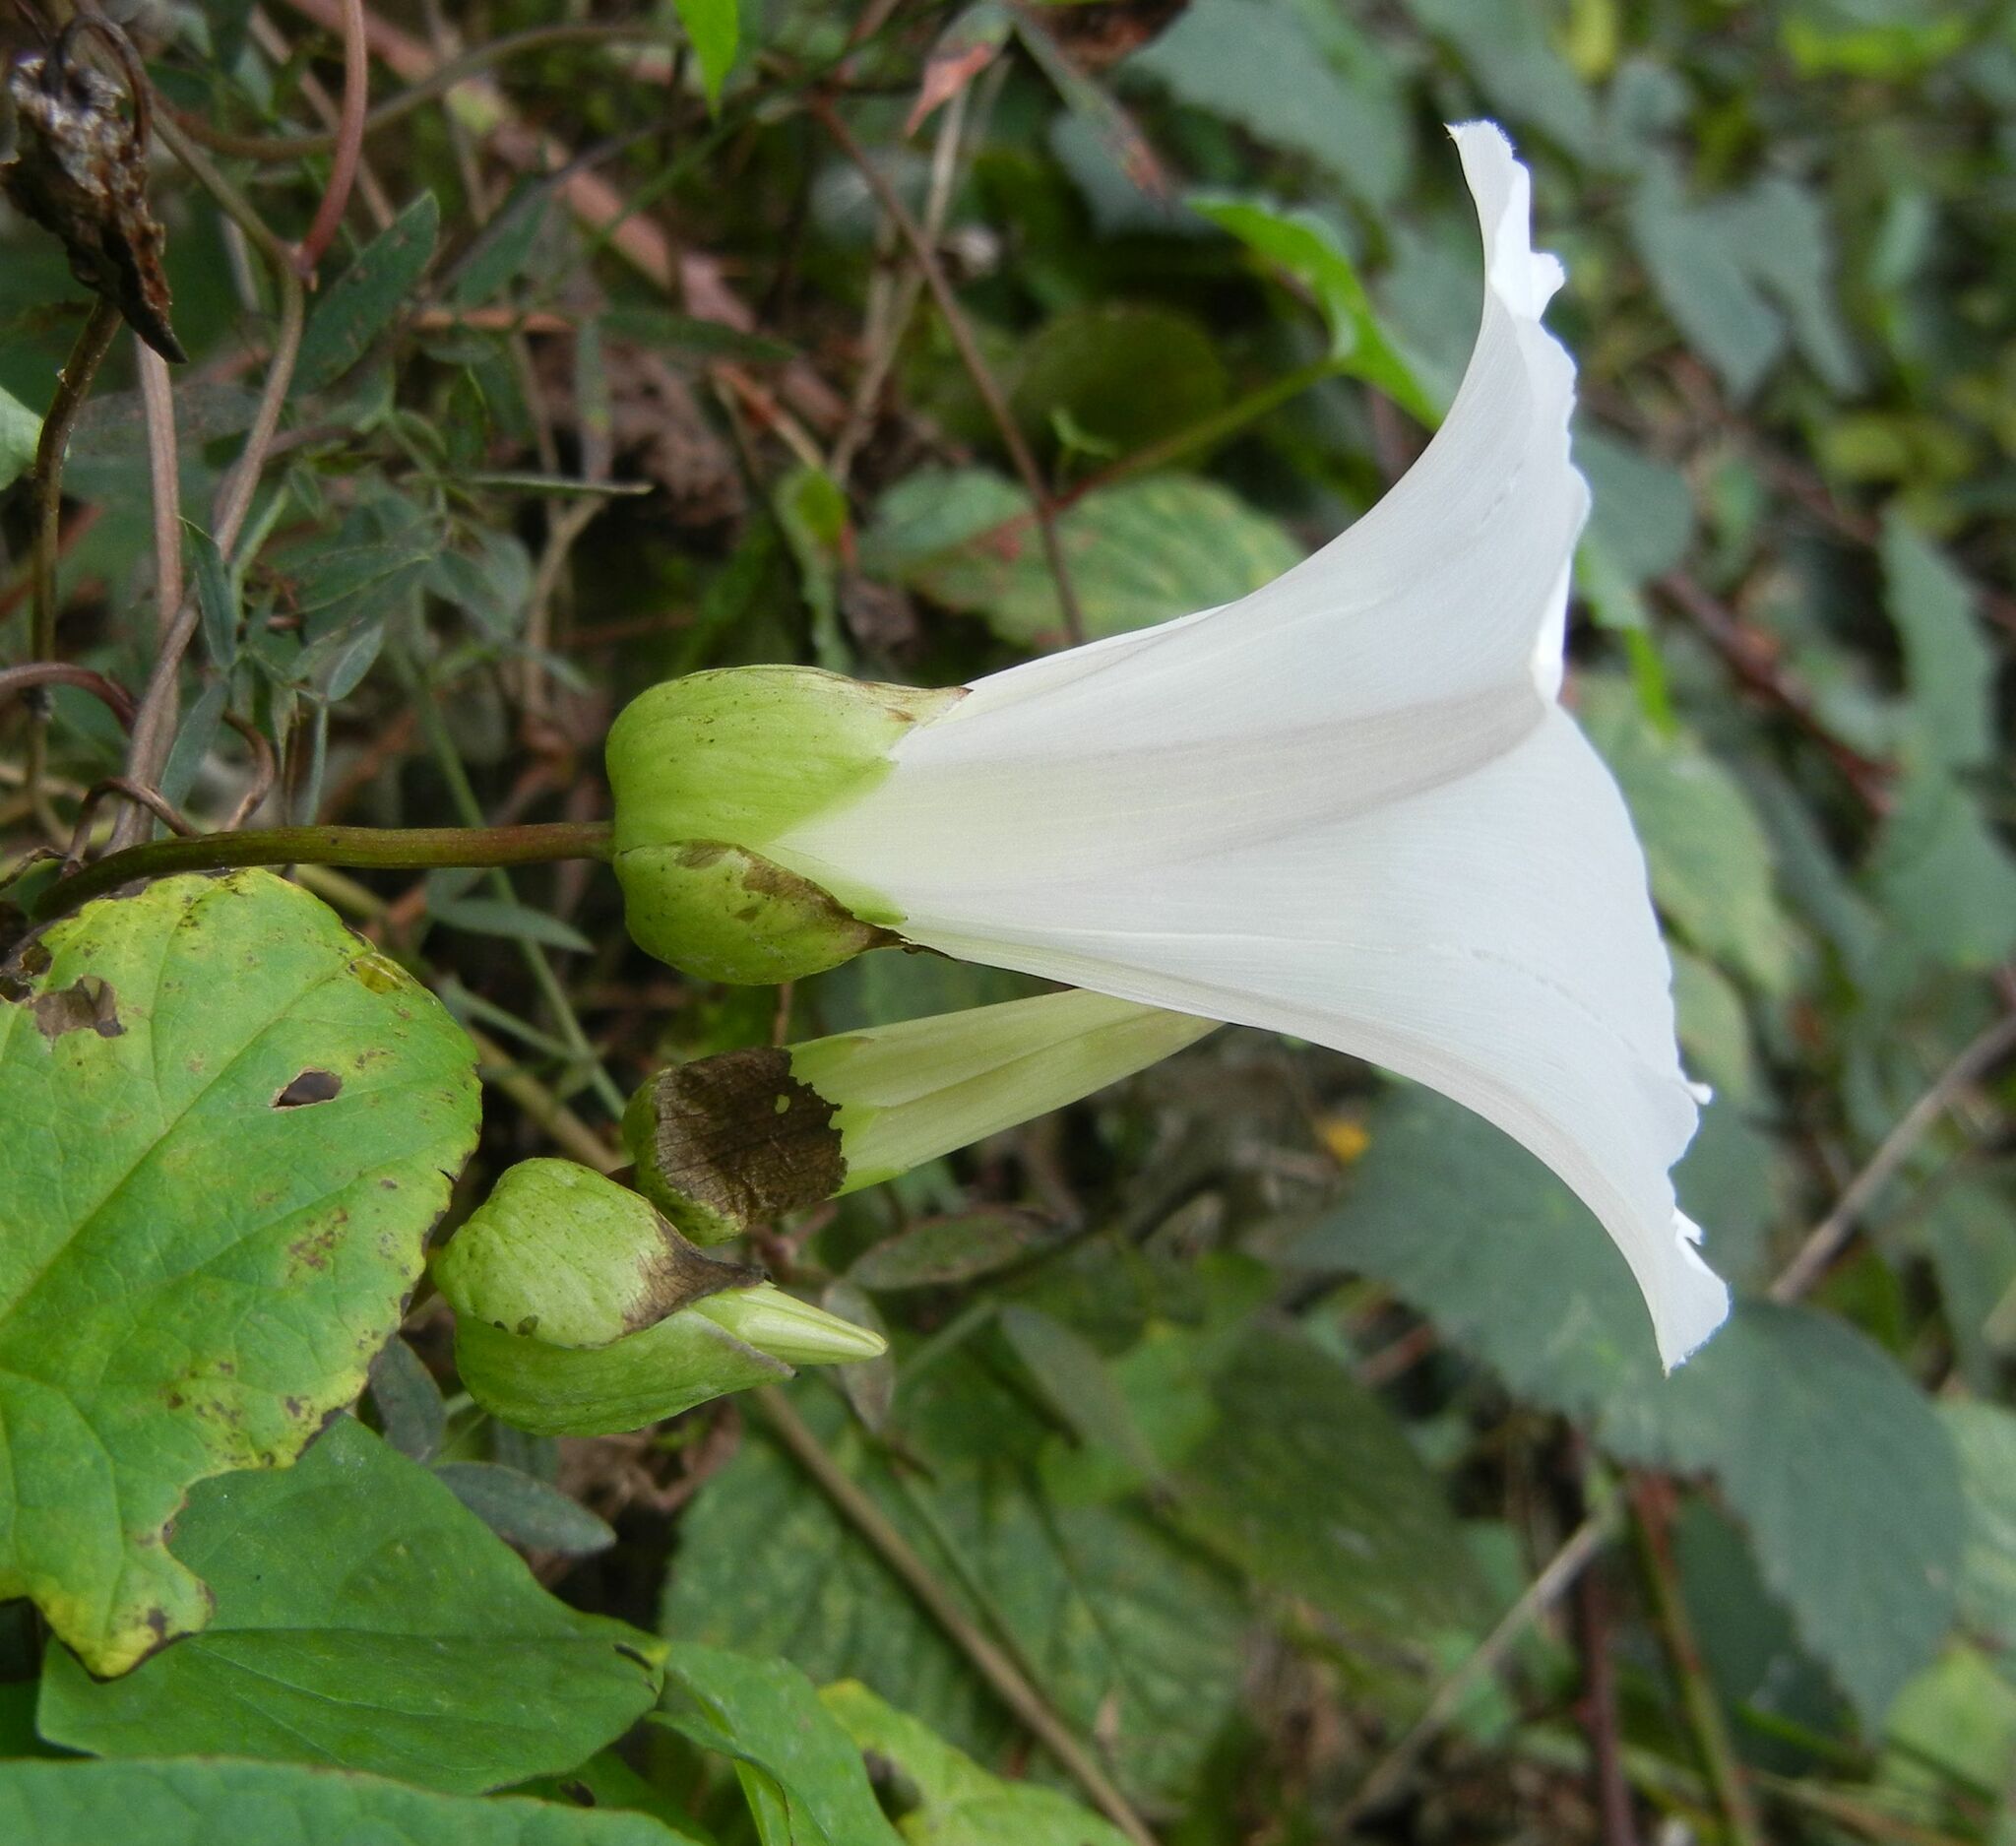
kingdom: Plantae
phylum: Tracheophyta
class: Magnoliopsida
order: Solanales
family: Convolvulaceae
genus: Calystegia
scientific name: Calystegia silvatica
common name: Large bindweed
